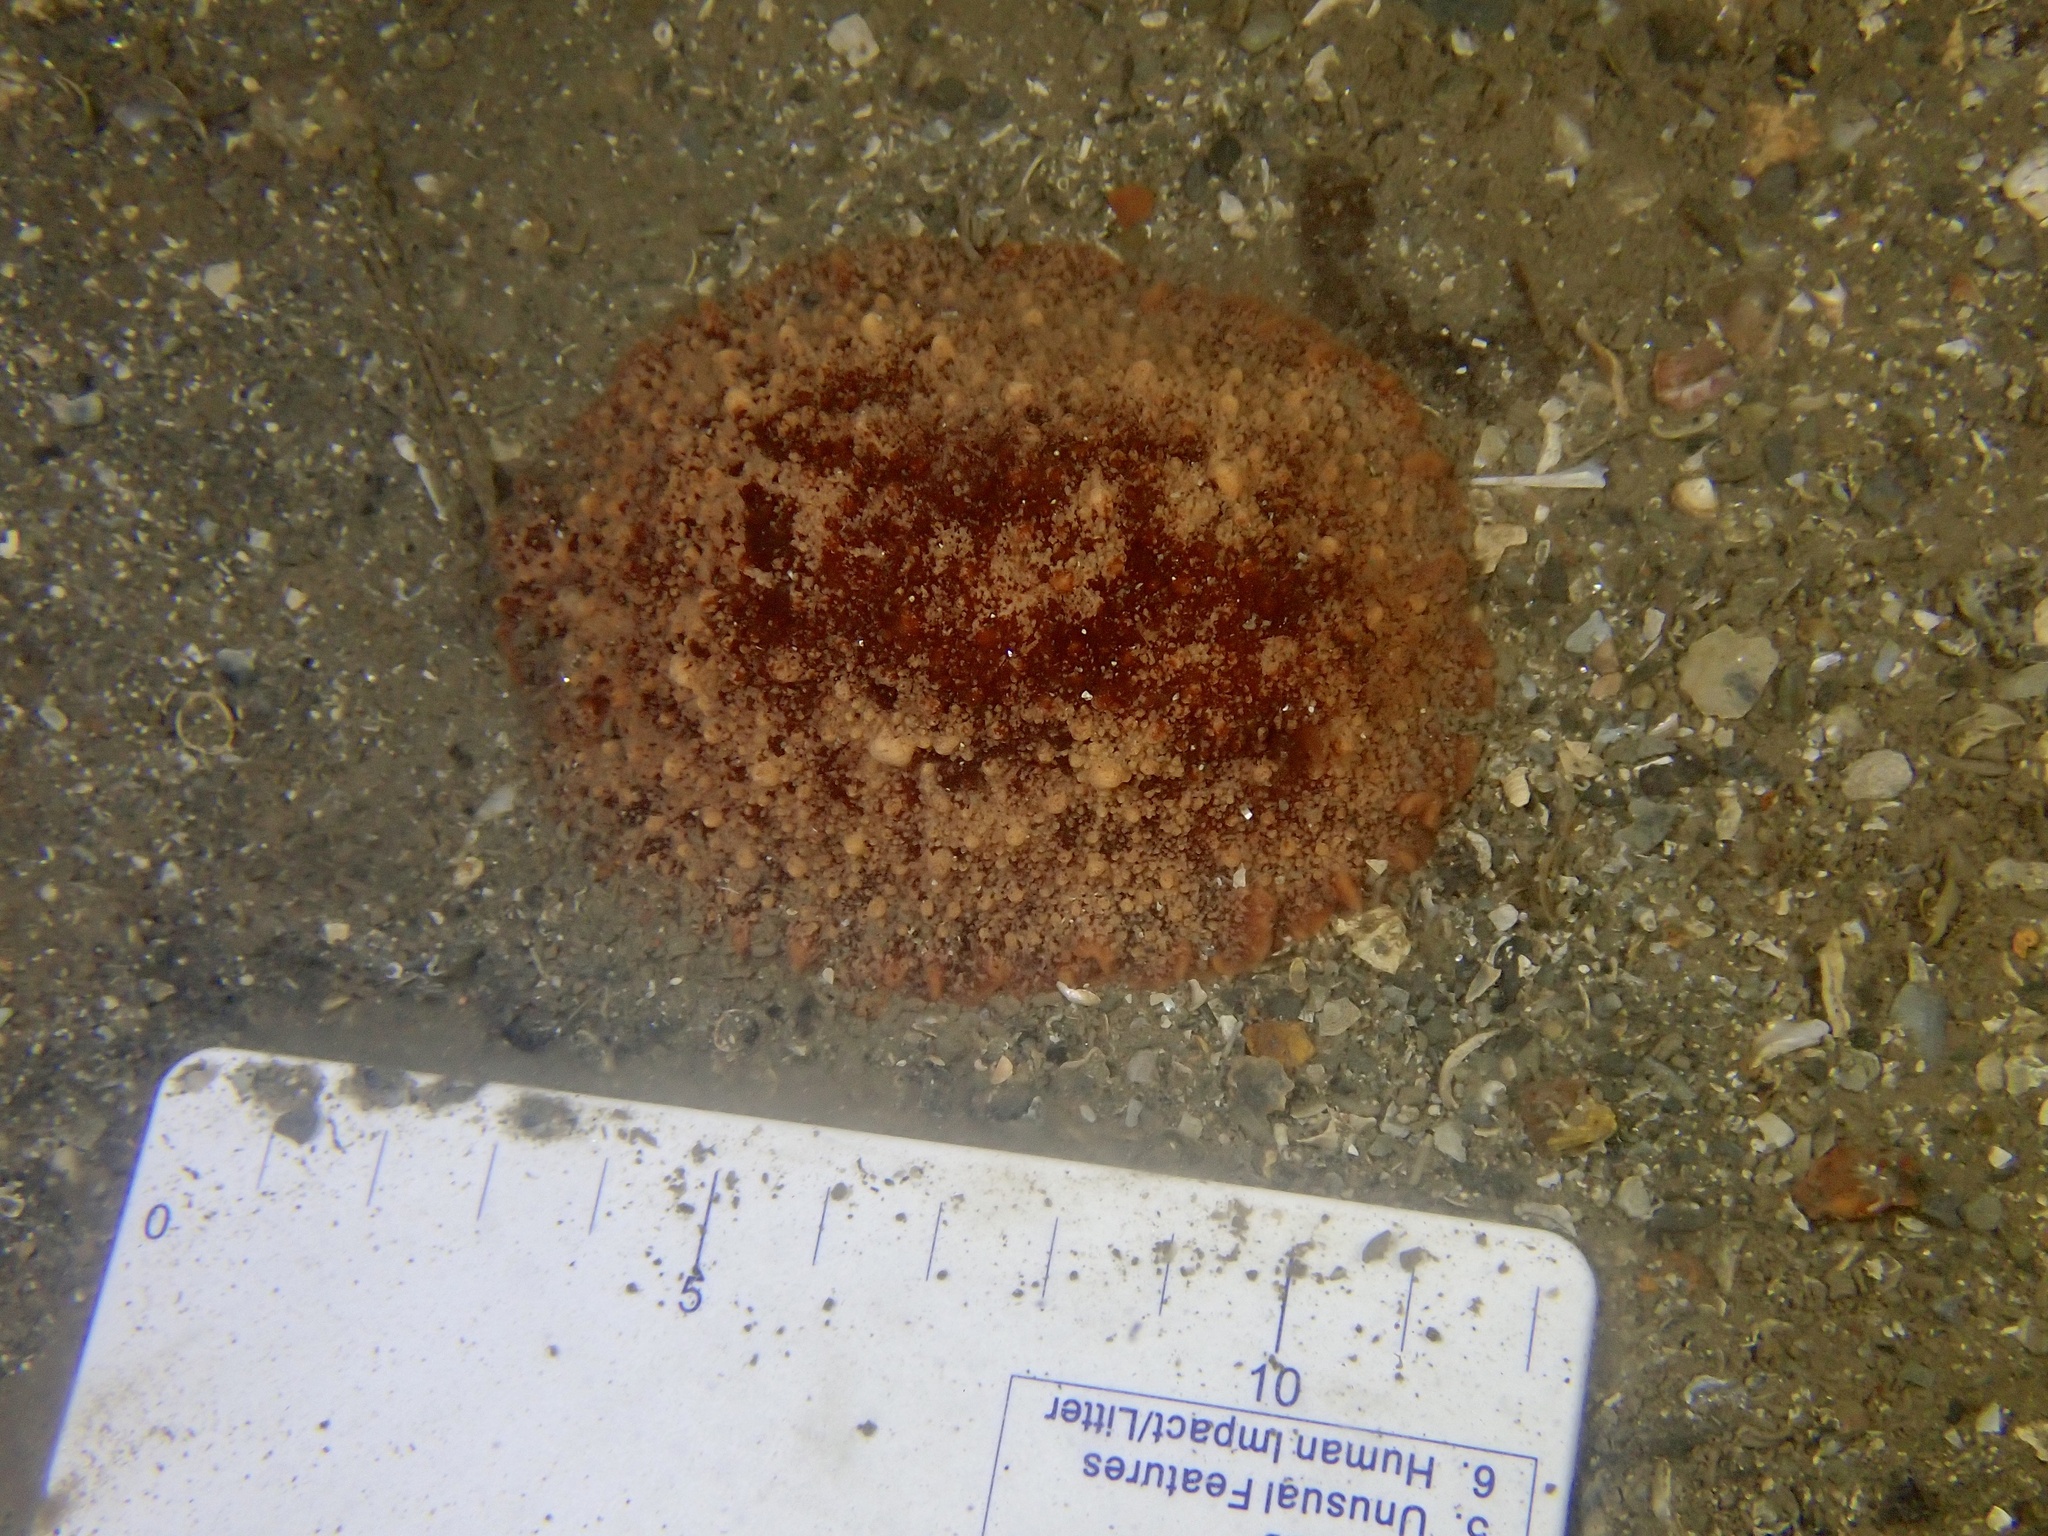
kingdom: Animalia
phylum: Mollusca
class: Gastropoda
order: Nudibranchia
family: Discodorididae
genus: Geitodoris
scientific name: Geitodoris planata
